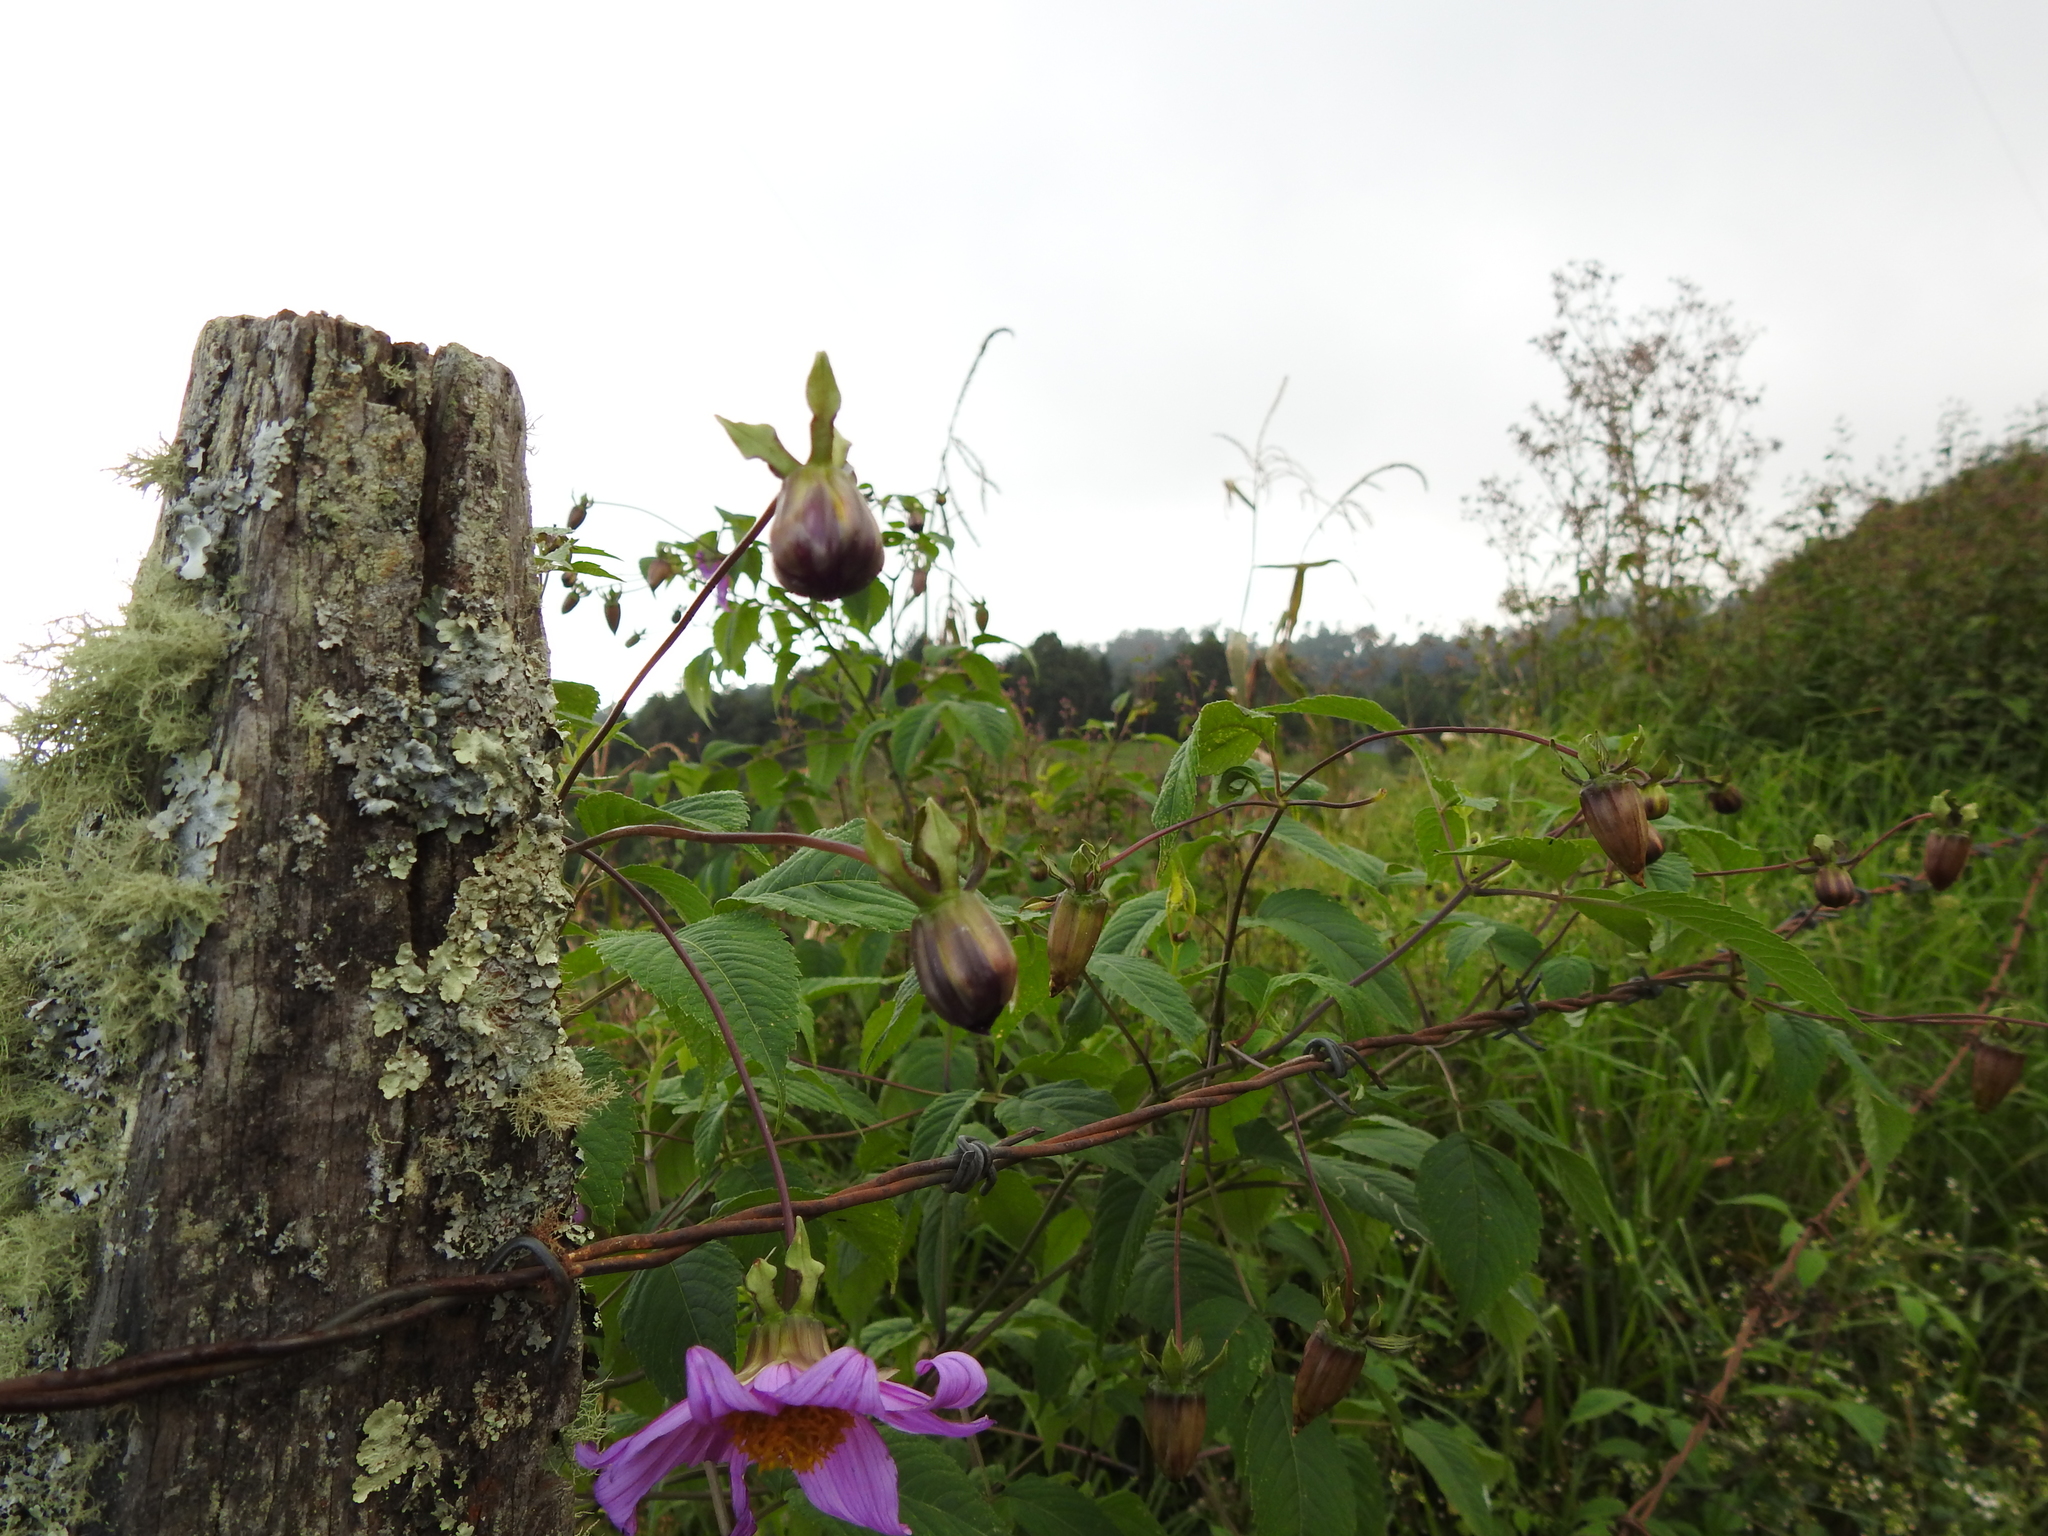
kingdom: Plantae
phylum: Tracheophyta
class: Magnoliopsida
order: Asterales
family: Asteraceae
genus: Dahlia
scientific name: Dahlia imperialis
